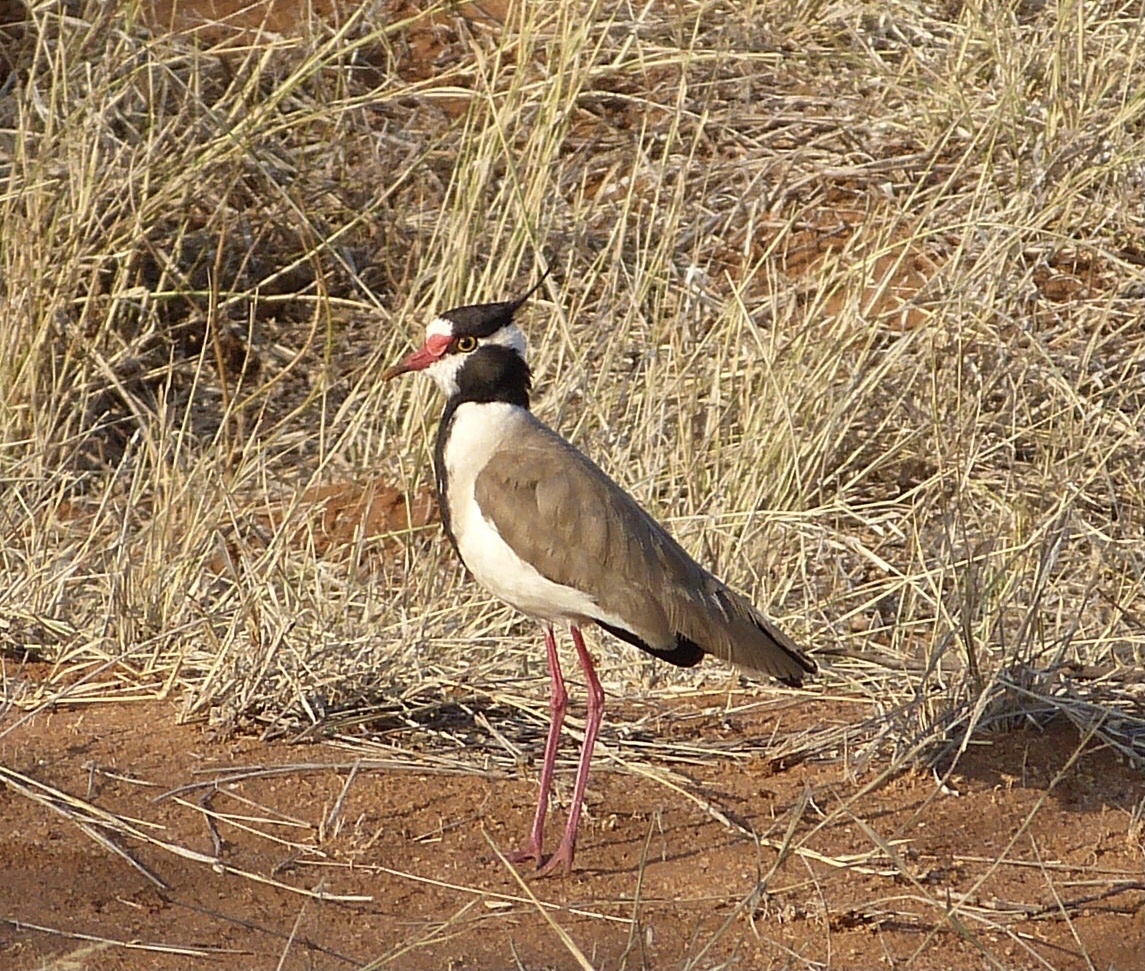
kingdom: Animalia
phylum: Chordata
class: Aves
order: Charadriiformes
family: Charadriidae
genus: Vanellus
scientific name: Vanellus tectus
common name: Black-headed lapwing
